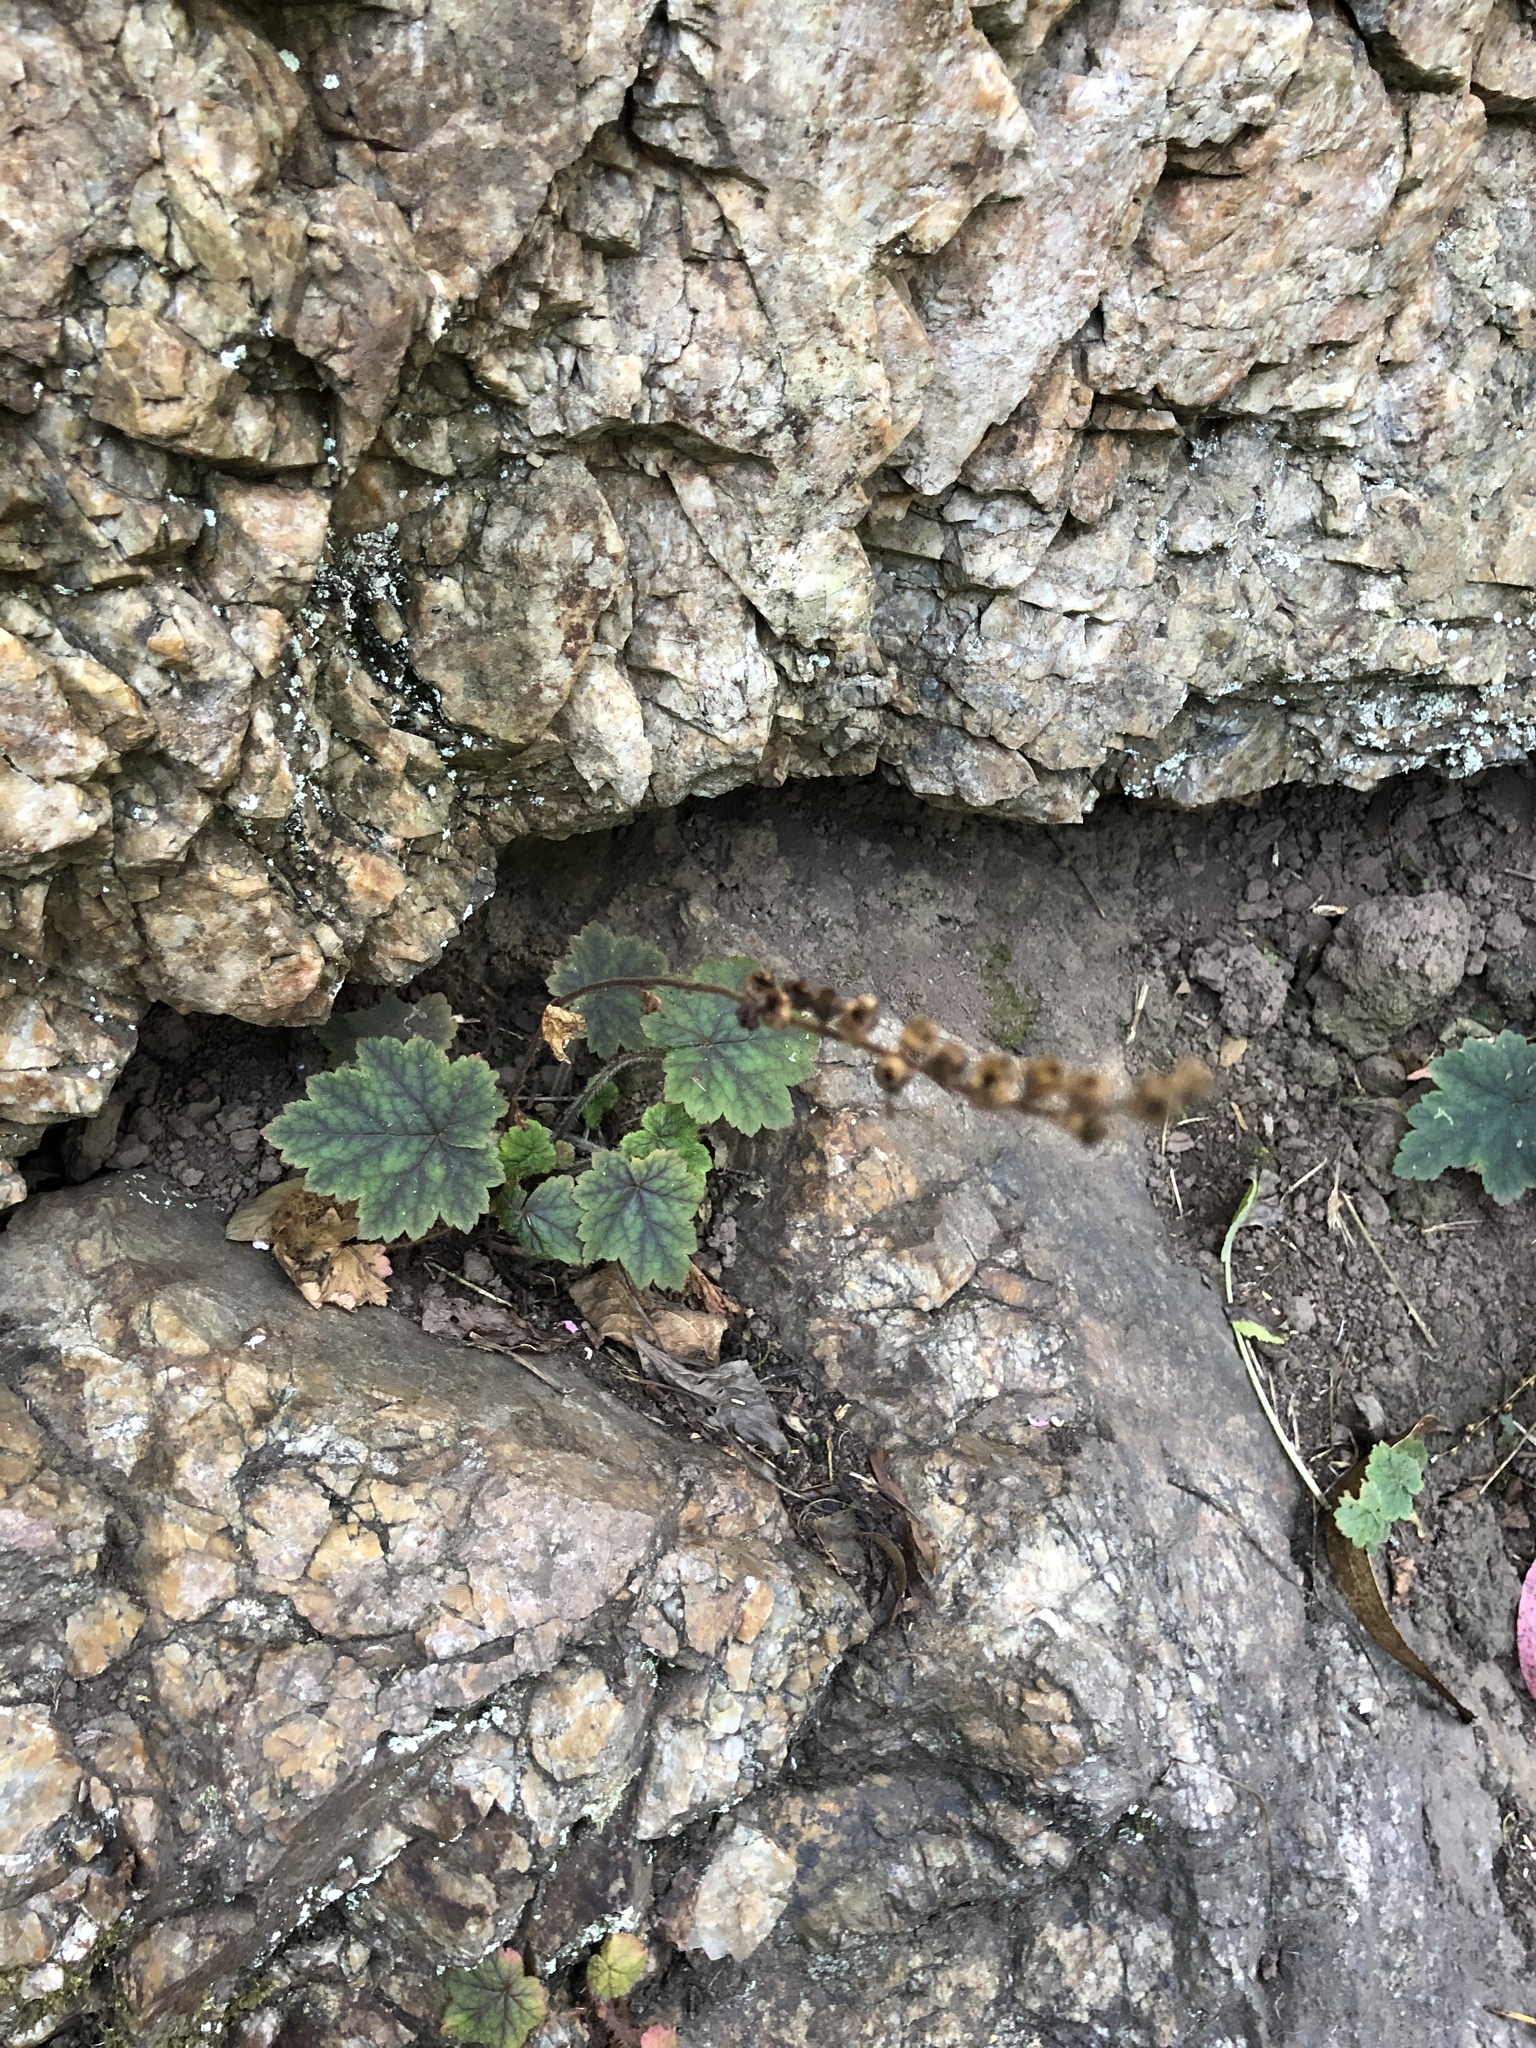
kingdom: Plantae
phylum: Tracheophyta
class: Magnoliopsida
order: Saxifragales
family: Saxifragaceae
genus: Tellima
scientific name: Tellima grandiflora
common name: Fringecups
